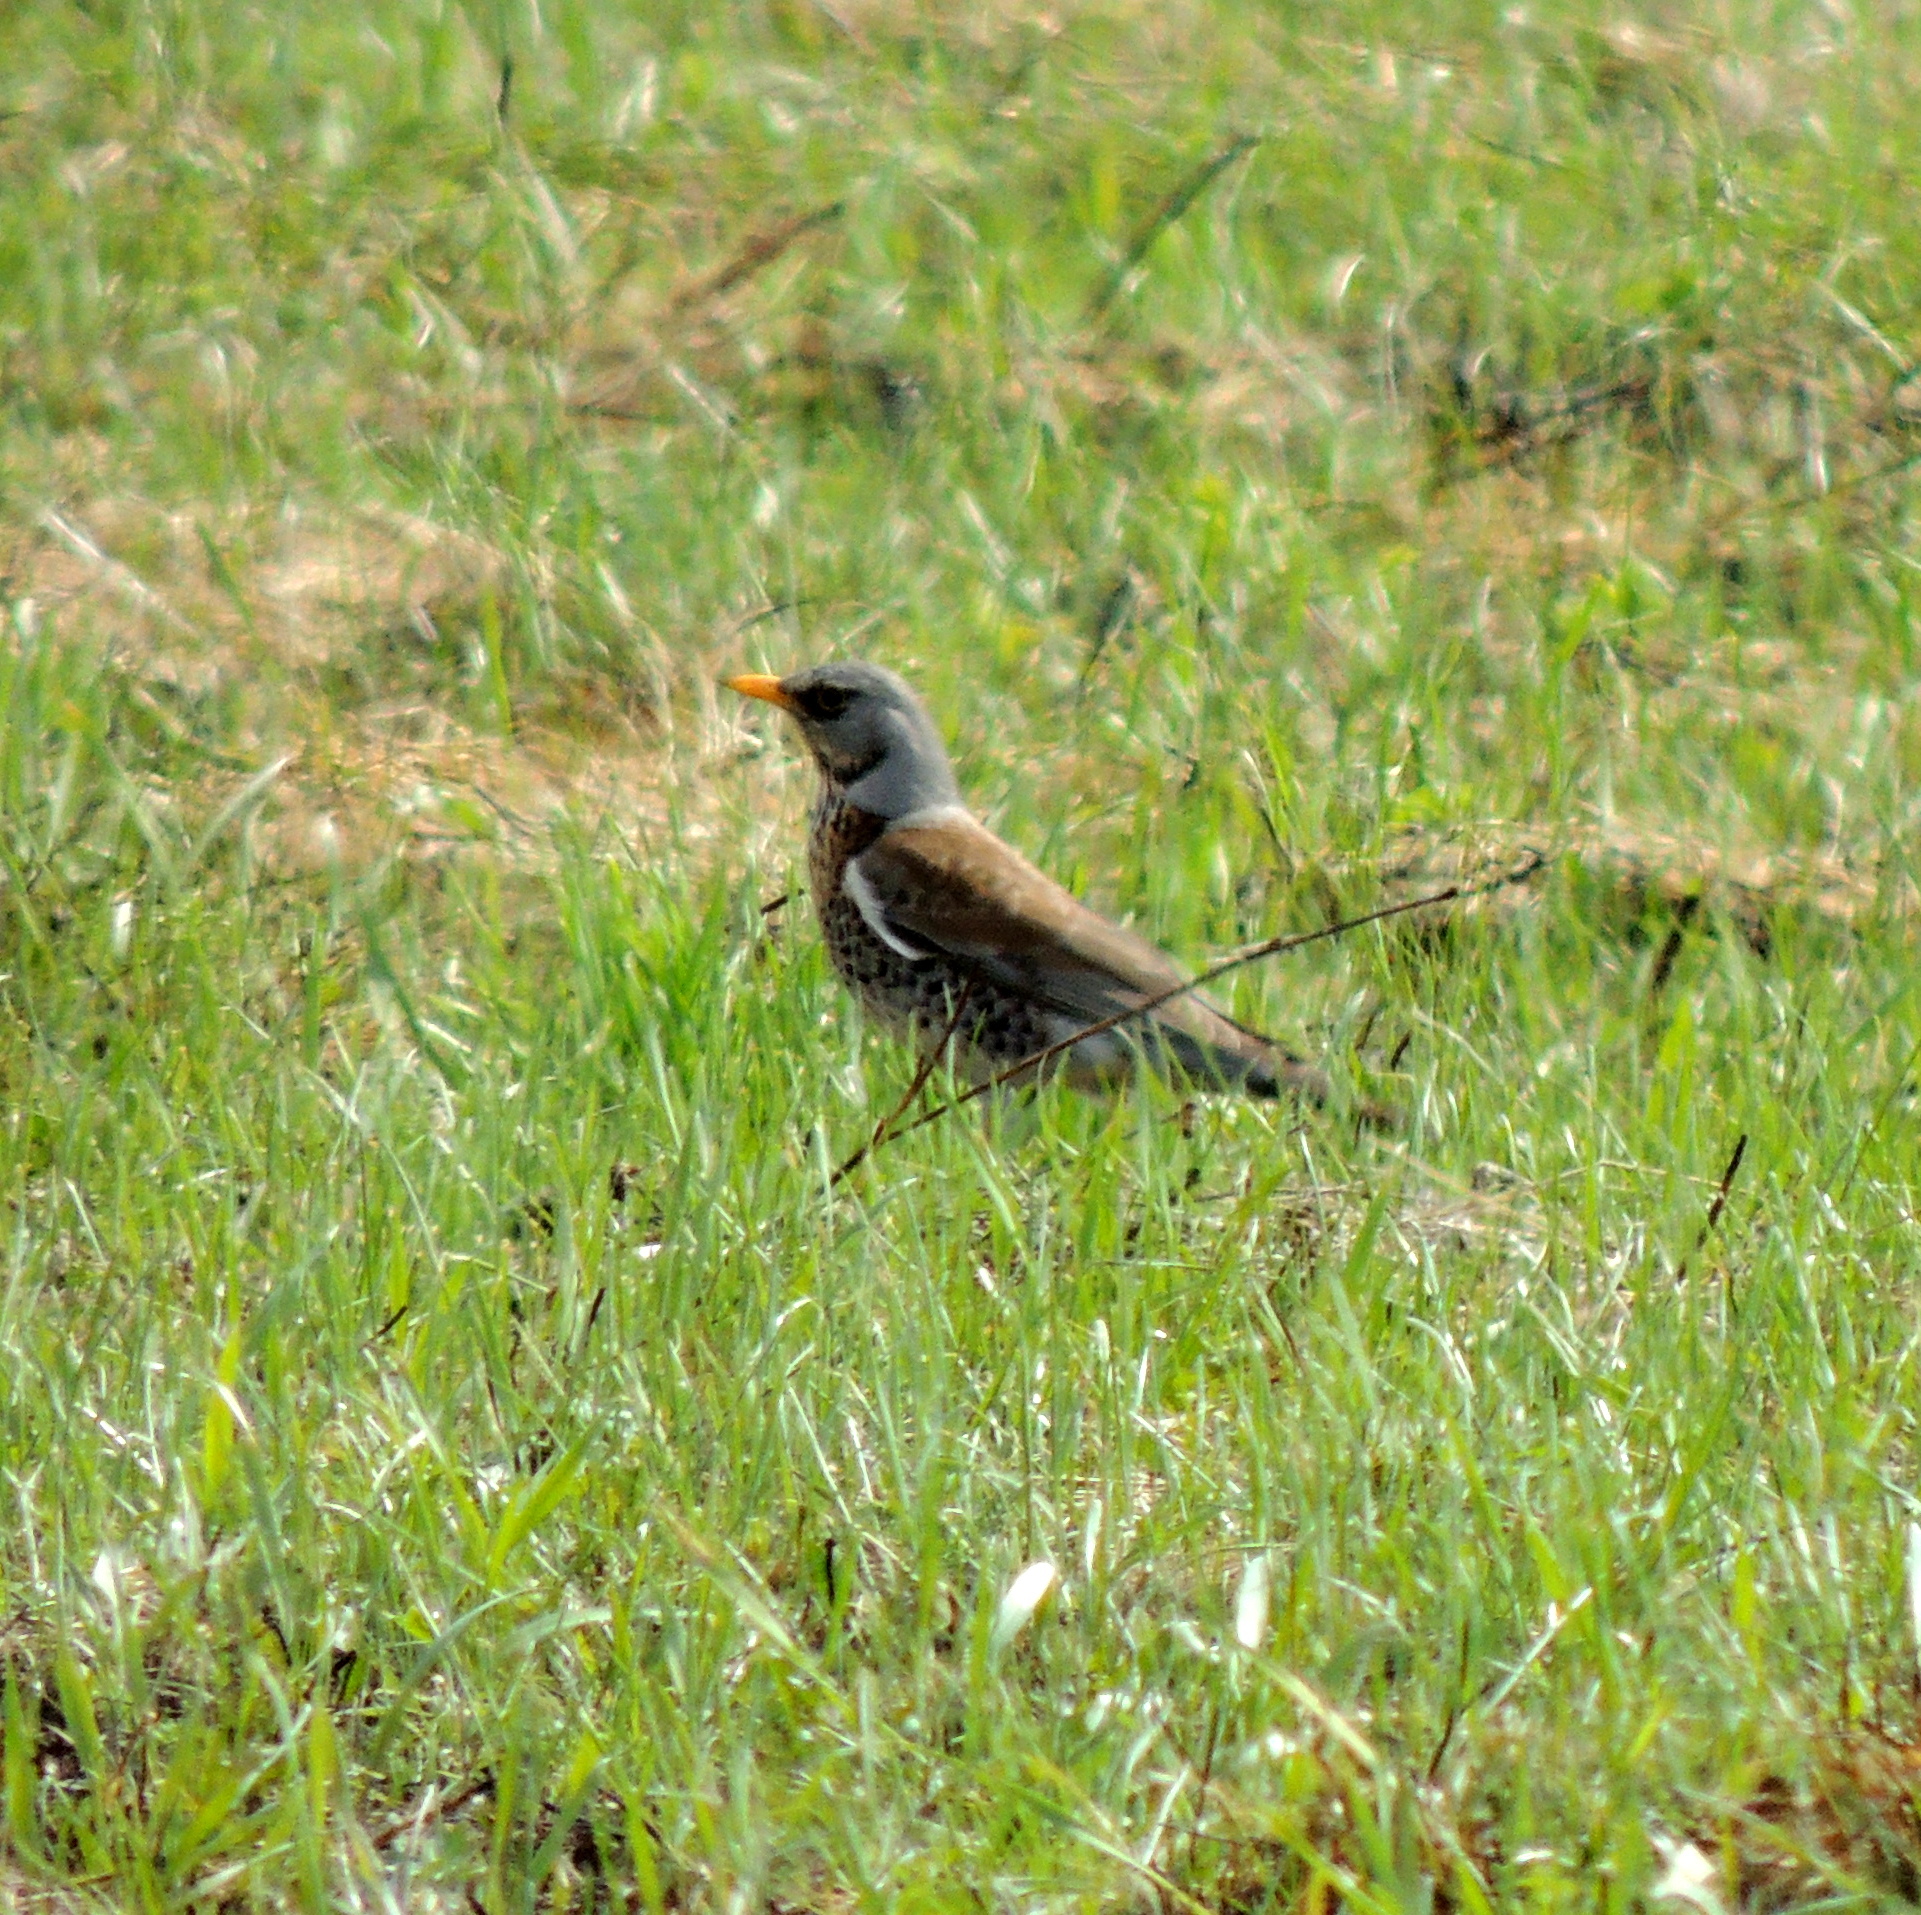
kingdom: Animalia
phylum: Chordata
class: Aves
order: Passeriformes
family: Turdidae
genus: Turdus
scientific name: Turdus pilaris
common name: Fieldfare
